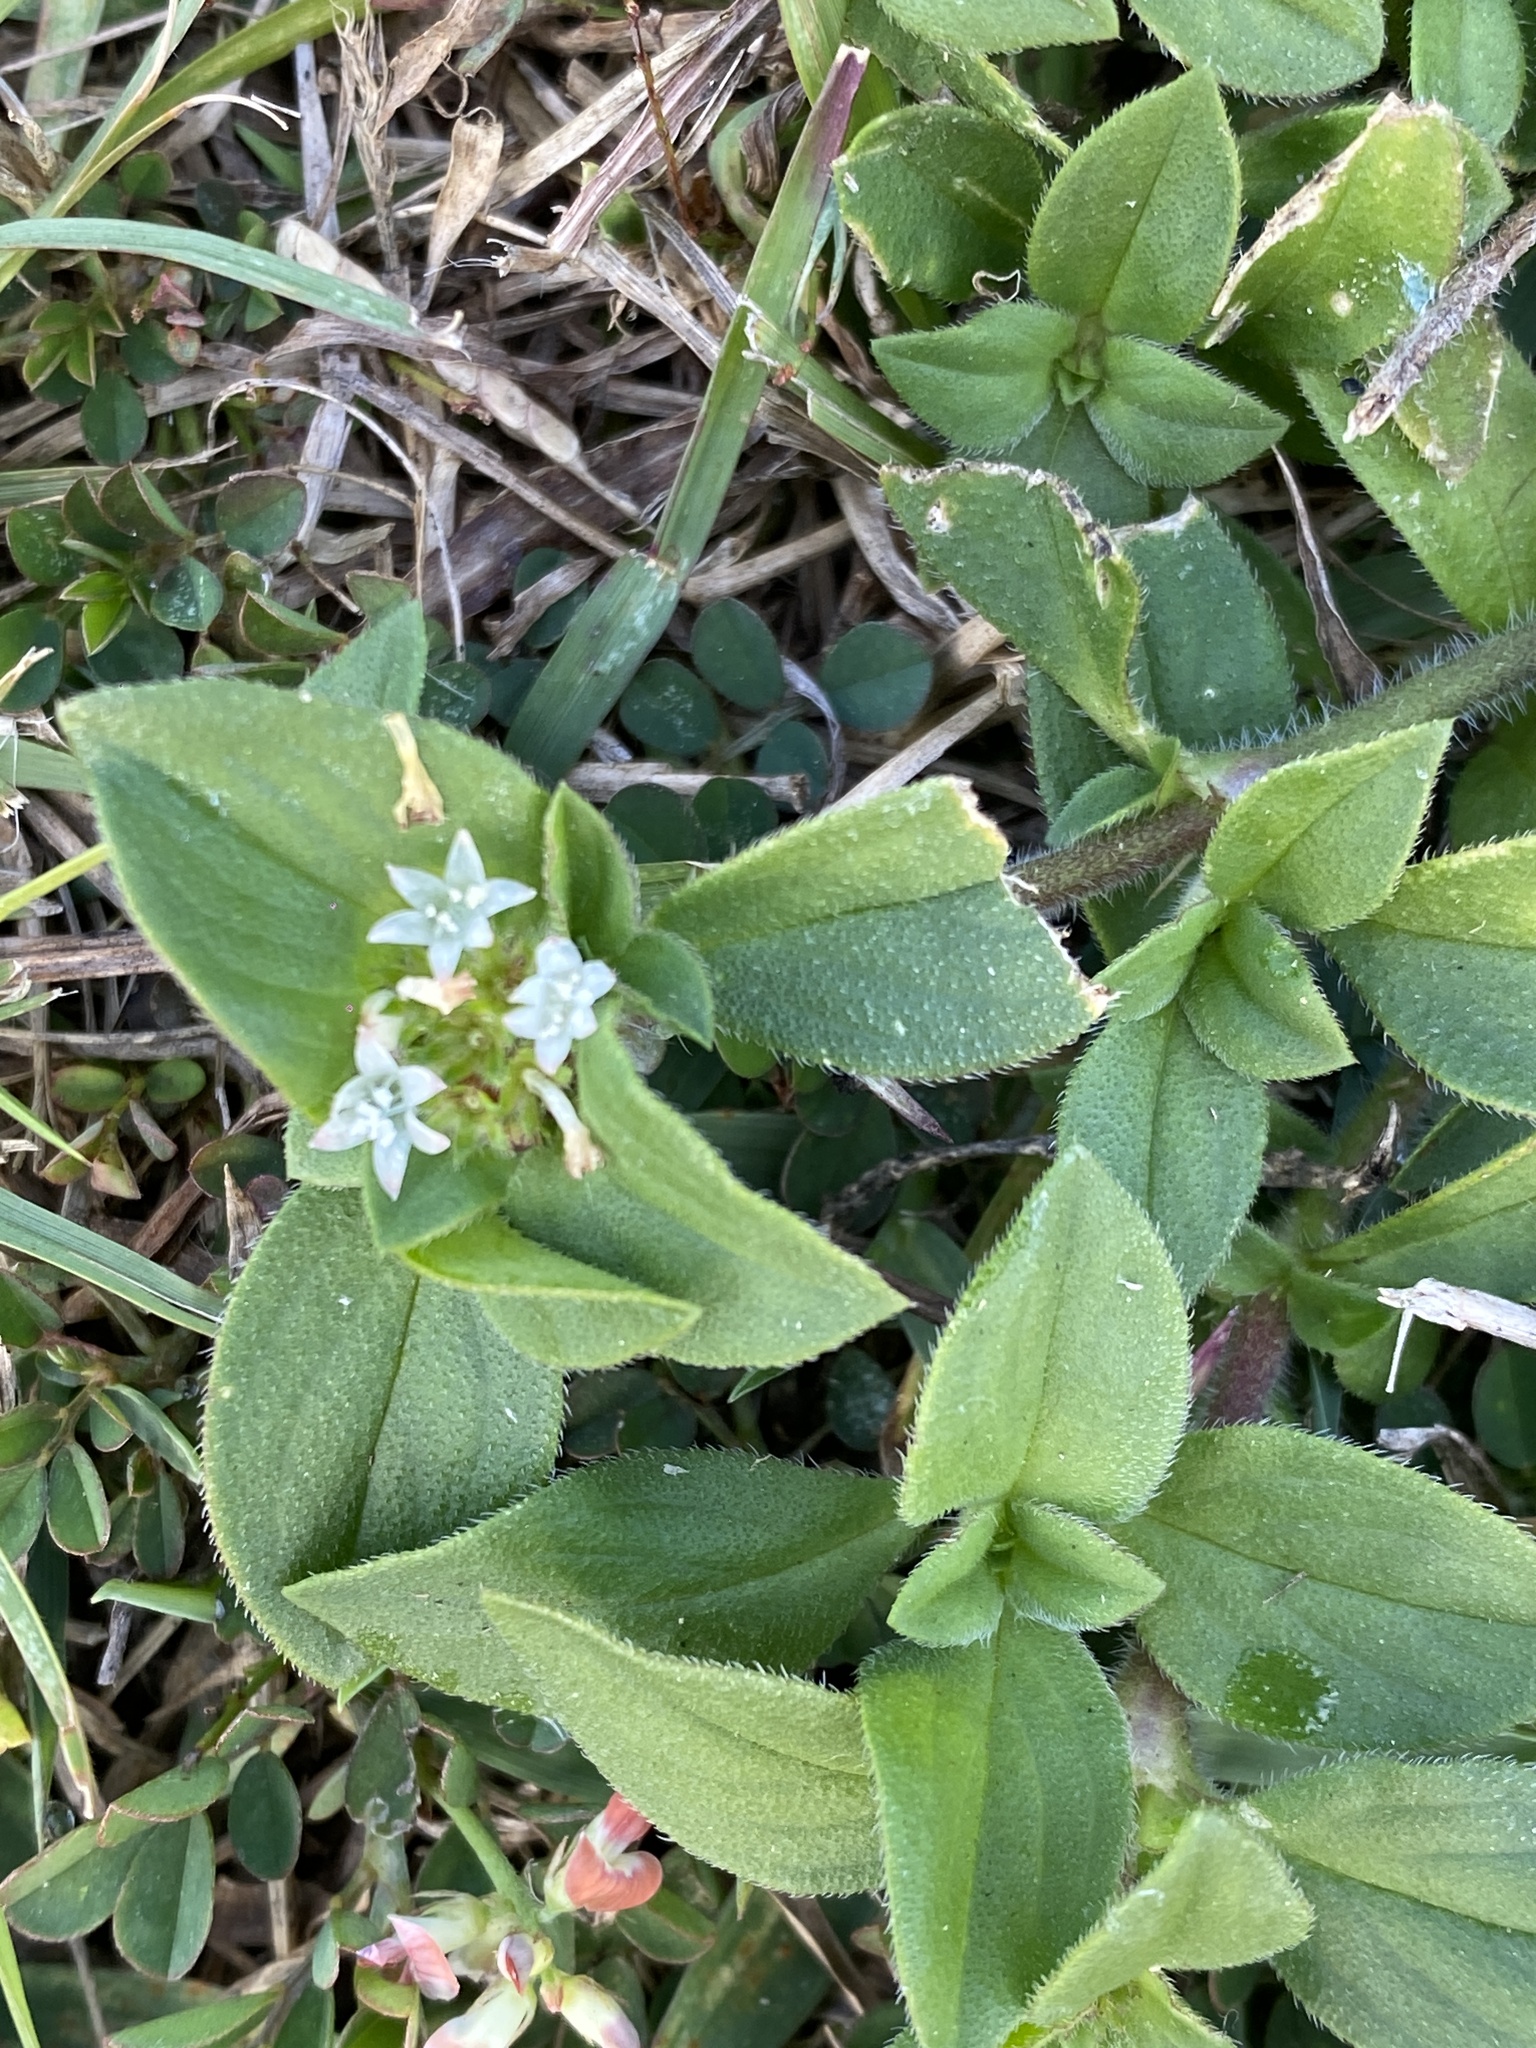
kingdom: Plantae
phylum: Tracheophyta
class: Magnoliopsida
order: Gentianales
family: Rubiaceae
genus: Richardia
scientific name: Richardia brasiliensis
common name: Tropical mexican clover
